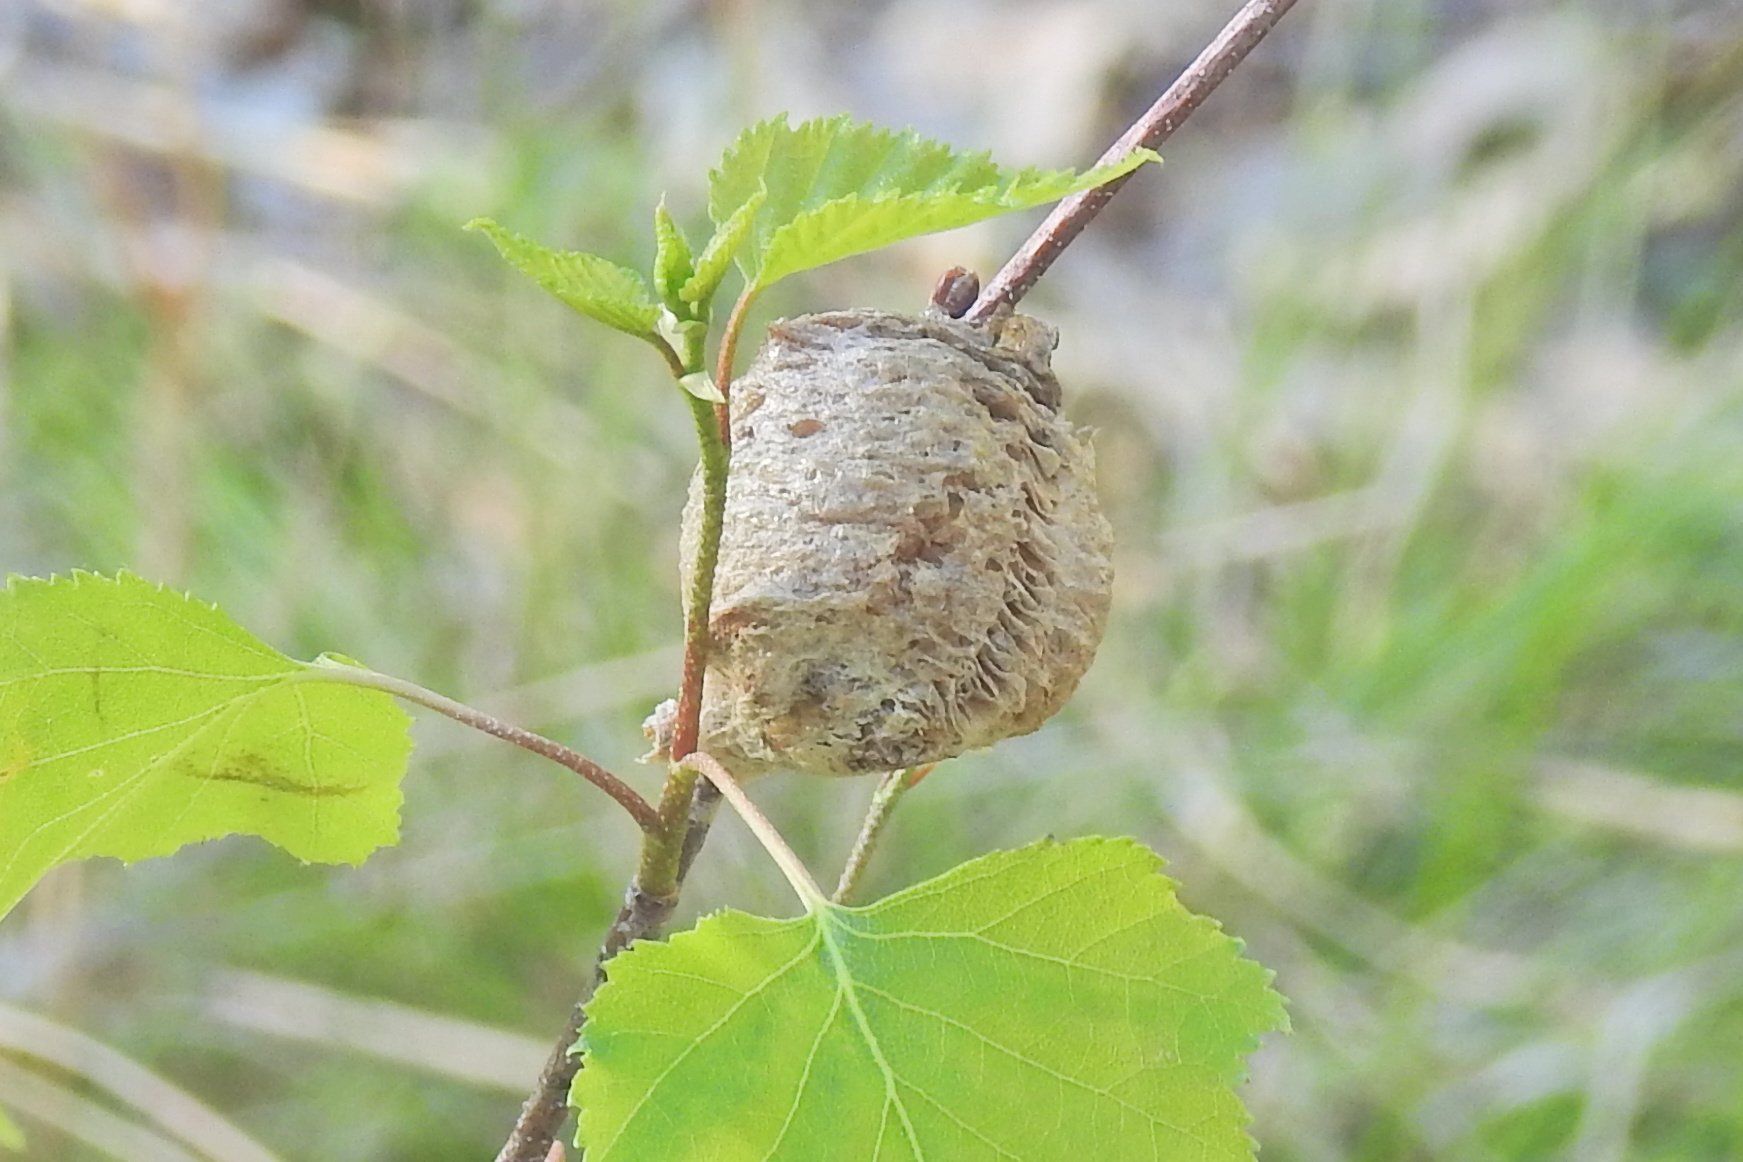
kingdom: Animalia
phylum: Arthropoda
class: Insecta
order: Mantodea
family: Mantidae
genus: Tenodera
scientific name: Tenodera sinensis
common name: Chinese mantis
